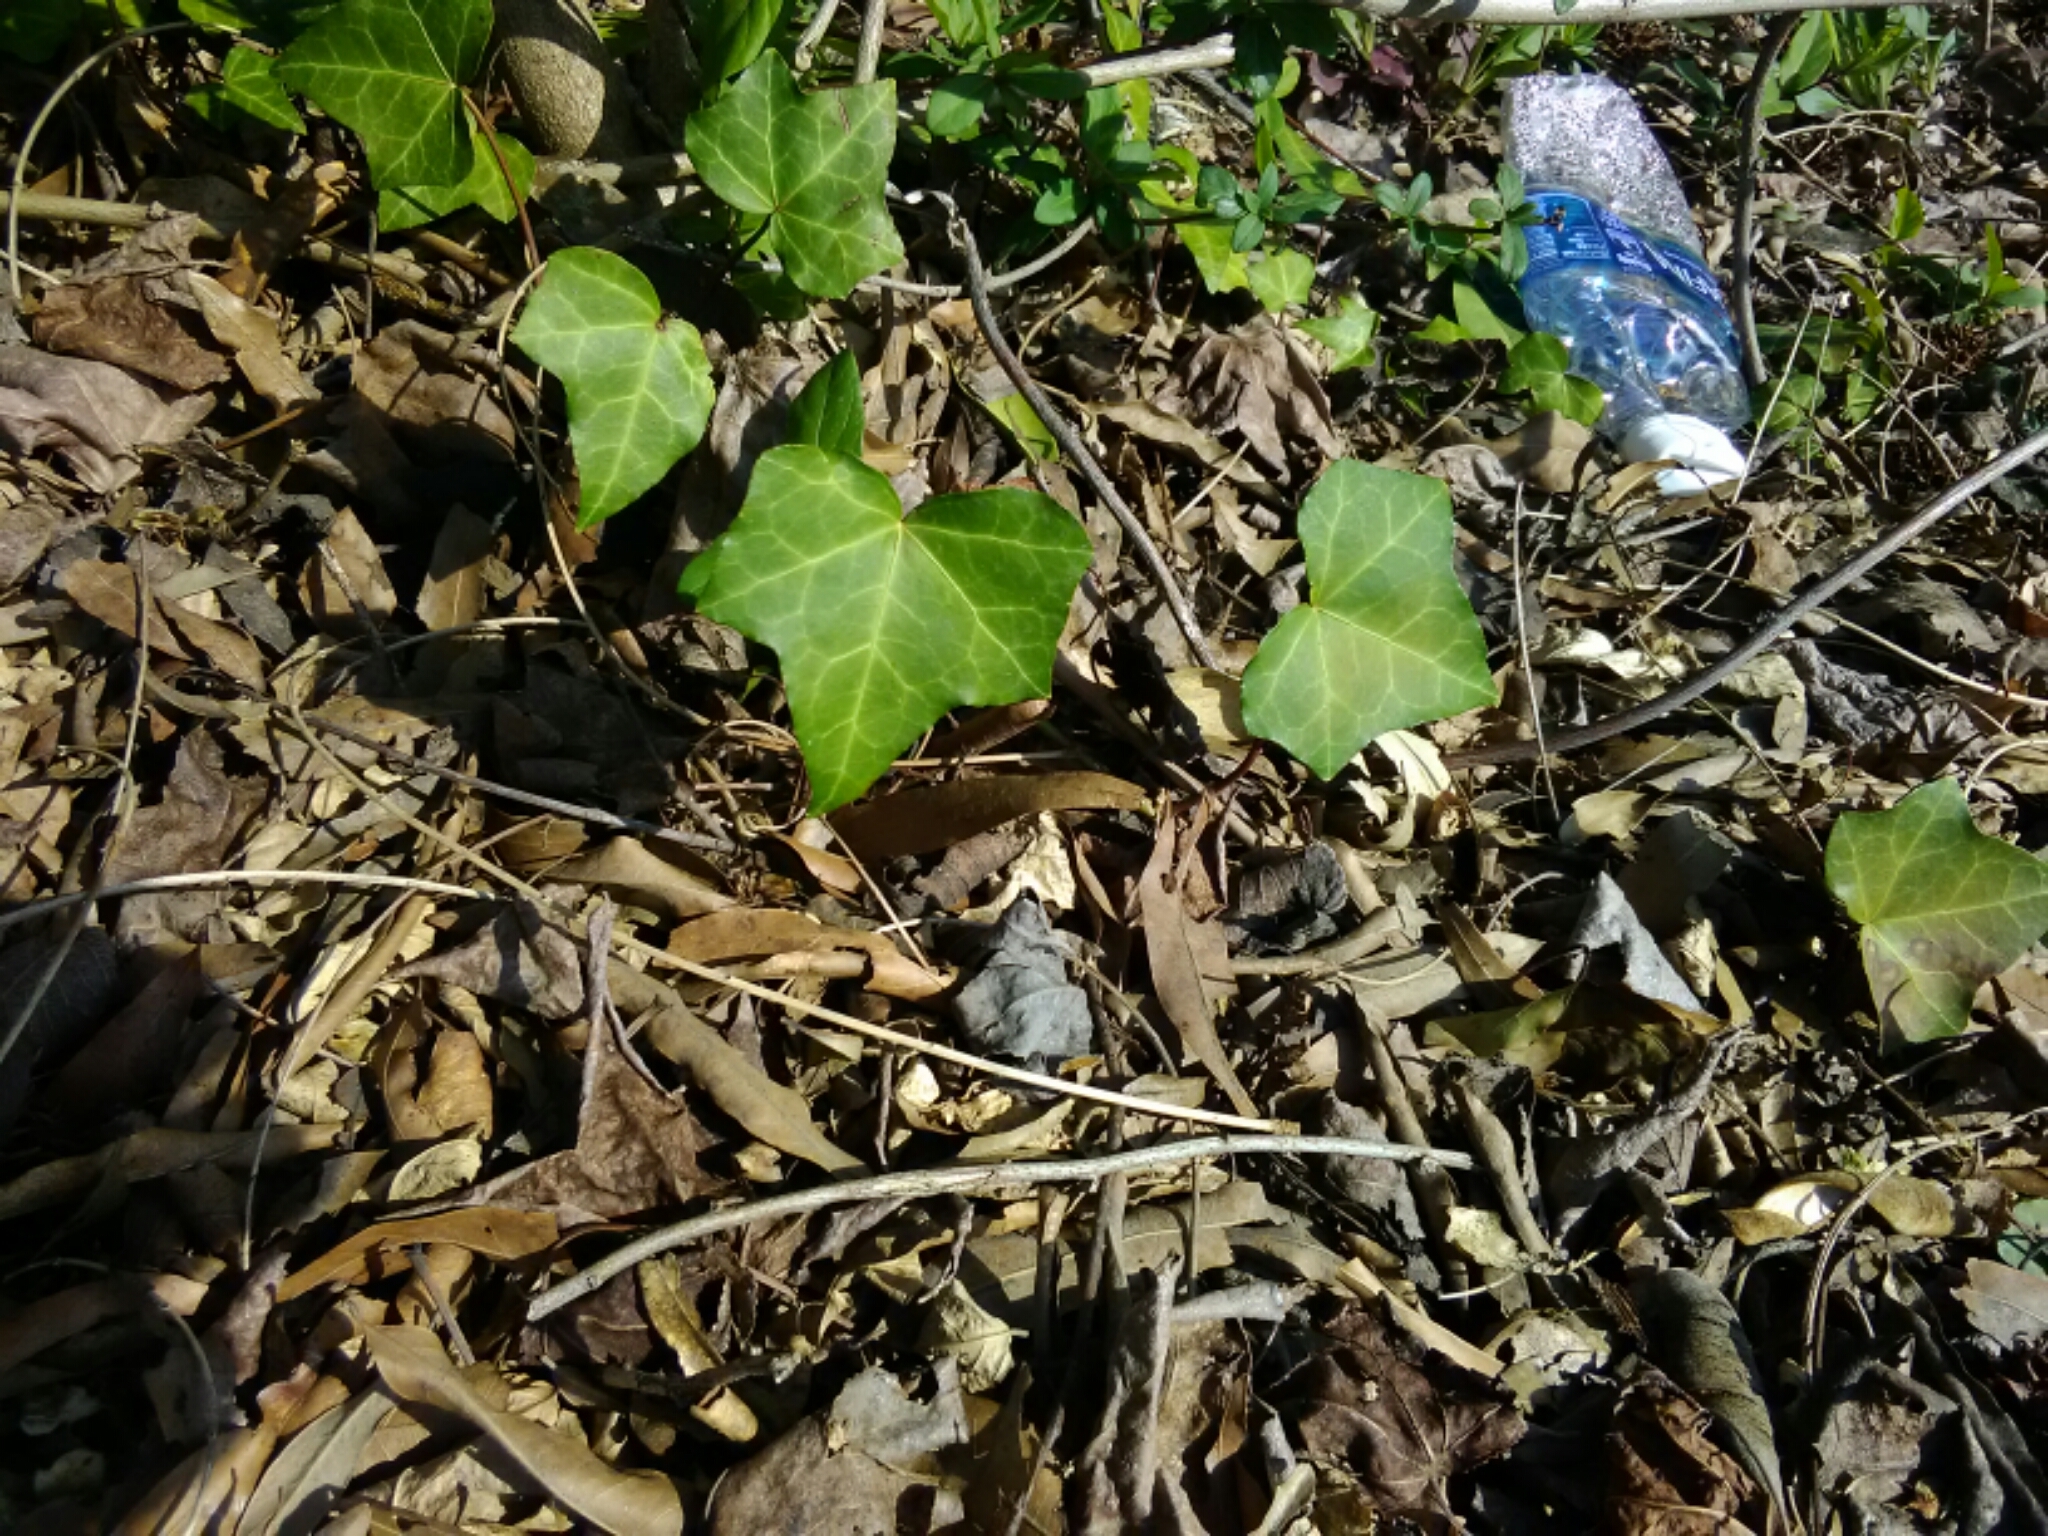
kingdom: Plantae
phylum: Tracheophyta
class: Magnoliopsida
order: Apiales
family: Araliaceae
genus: Hedera
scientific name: Hedera helix
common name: Ivy
